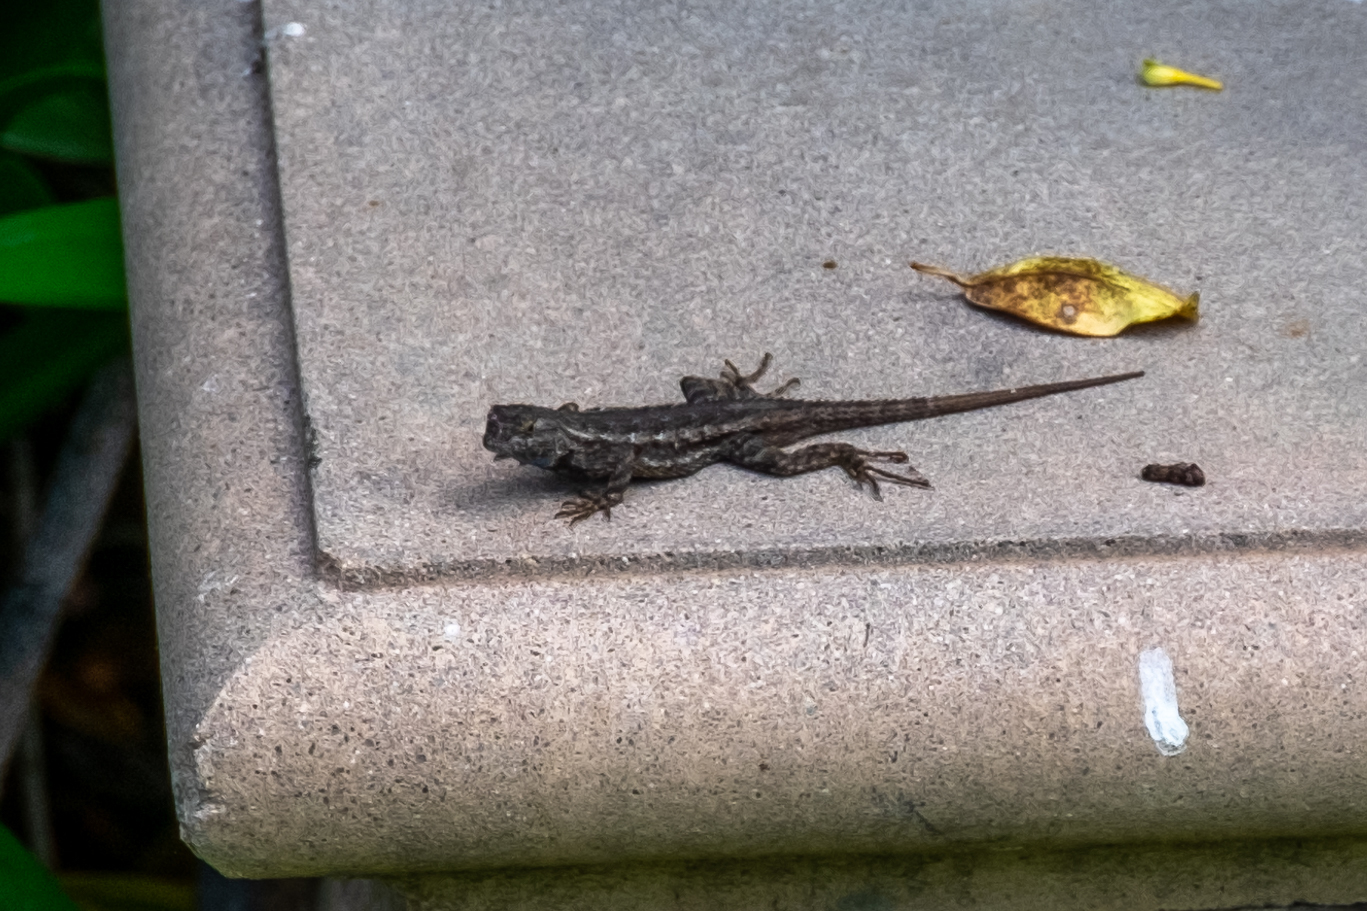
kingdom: Animalia
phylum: Chordata
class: Squamata
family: Phrynosomatidae
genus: Sceloporus
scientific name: Sceloporus occidentalis
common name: Western fence lizard
